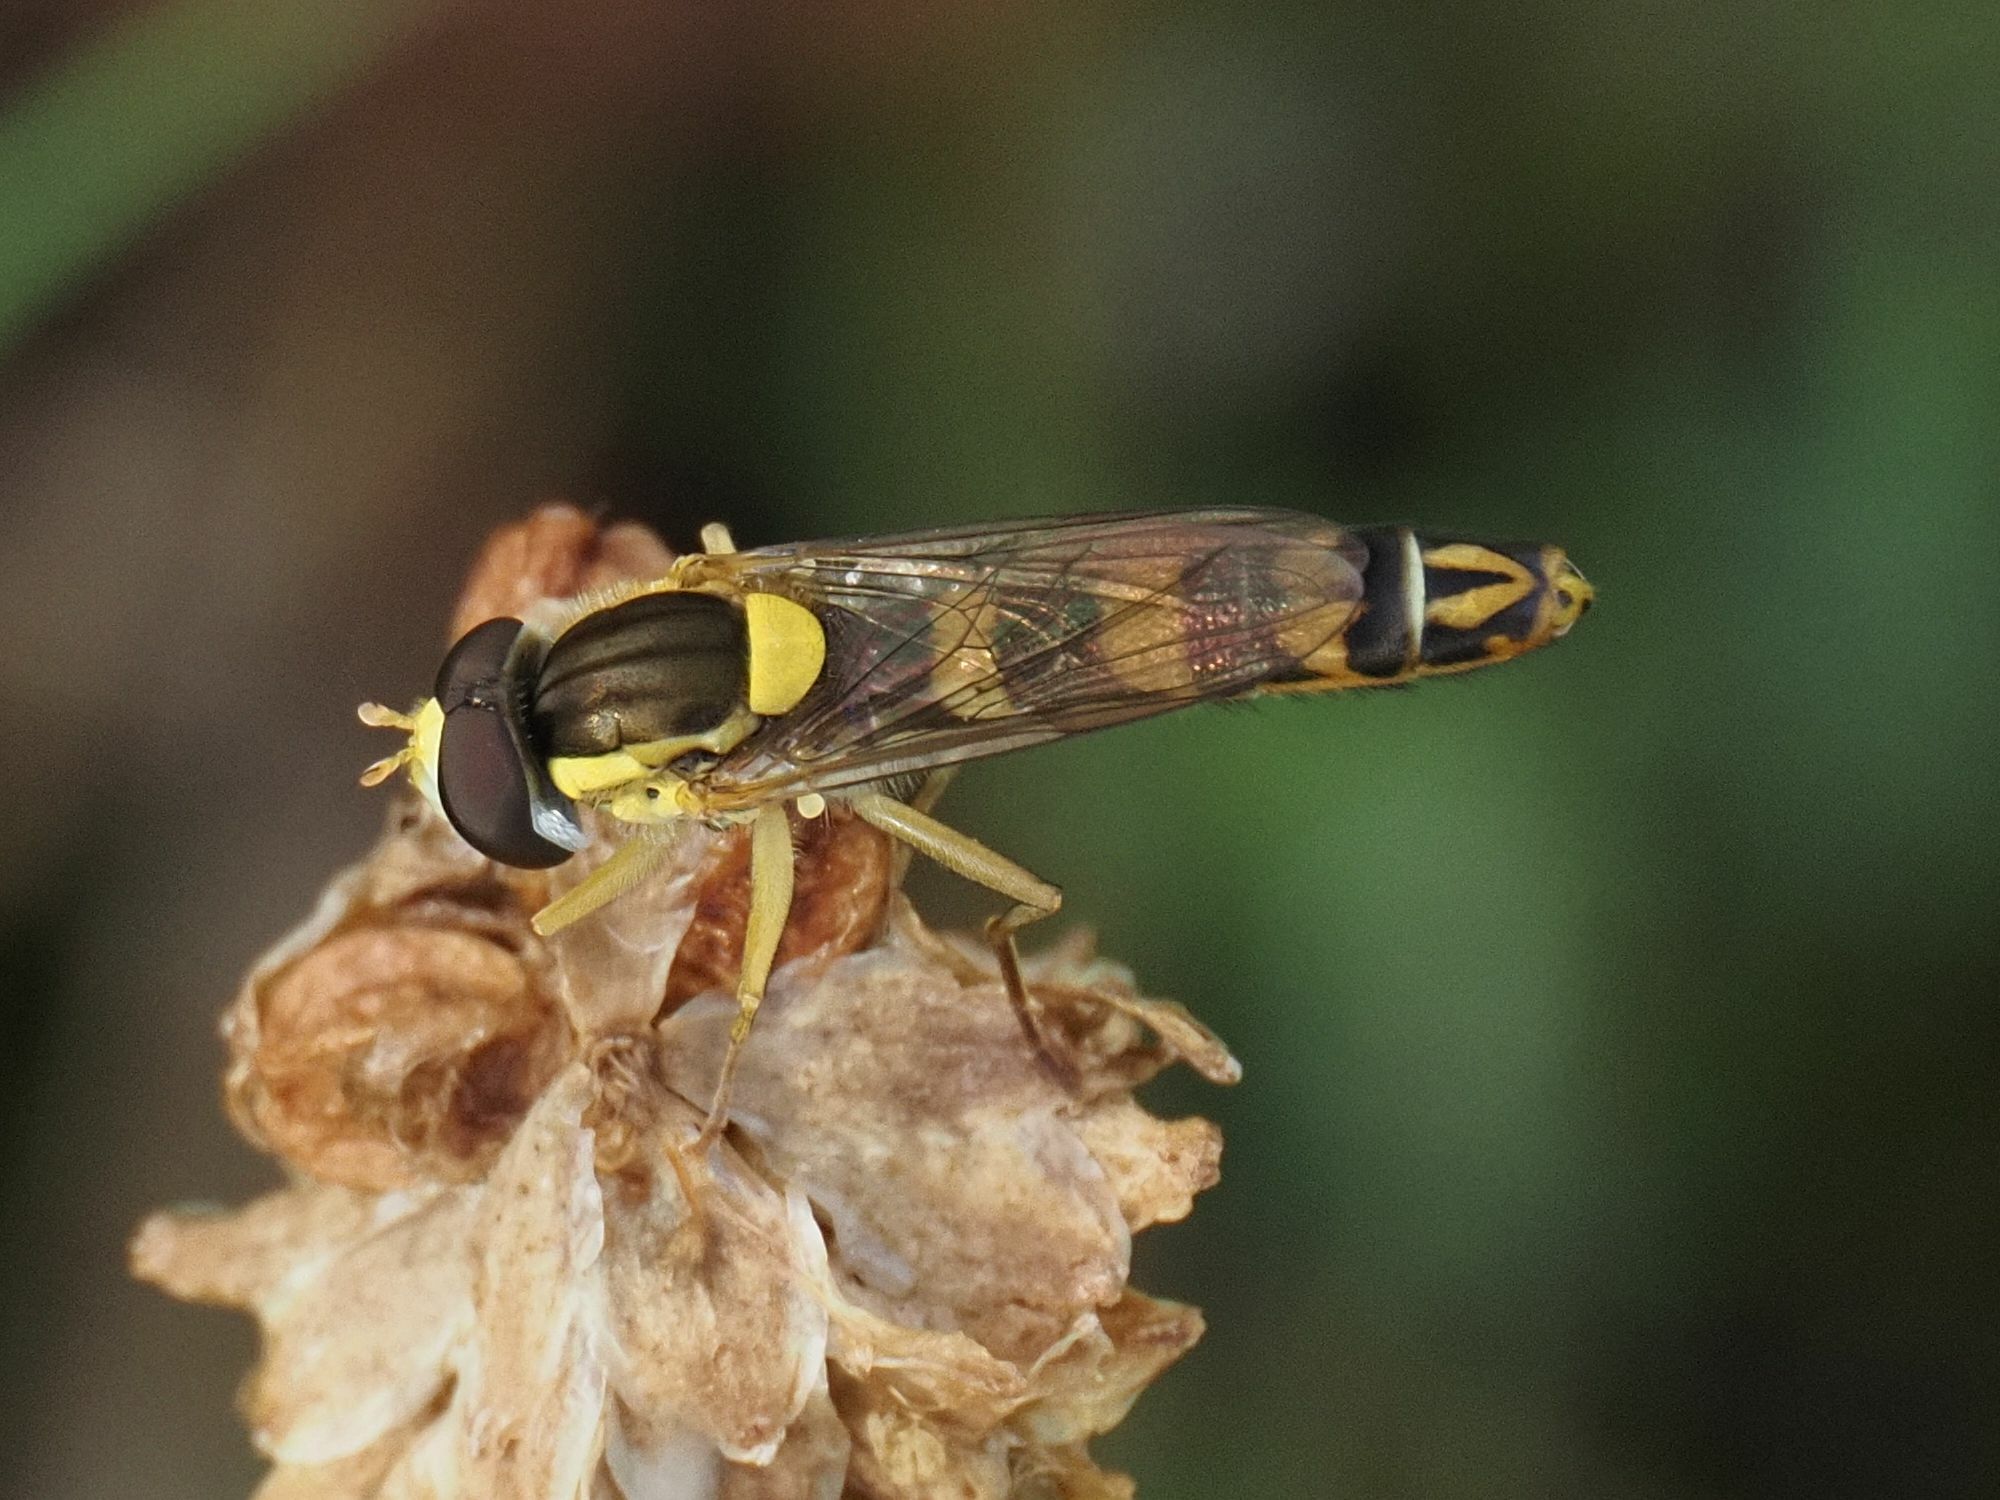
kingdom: Animalia
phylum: Arthropoda
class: Insecta
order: Diptera
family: Syrphidae
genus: Sphaerophoria
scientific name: Sphaerophoria scripta
